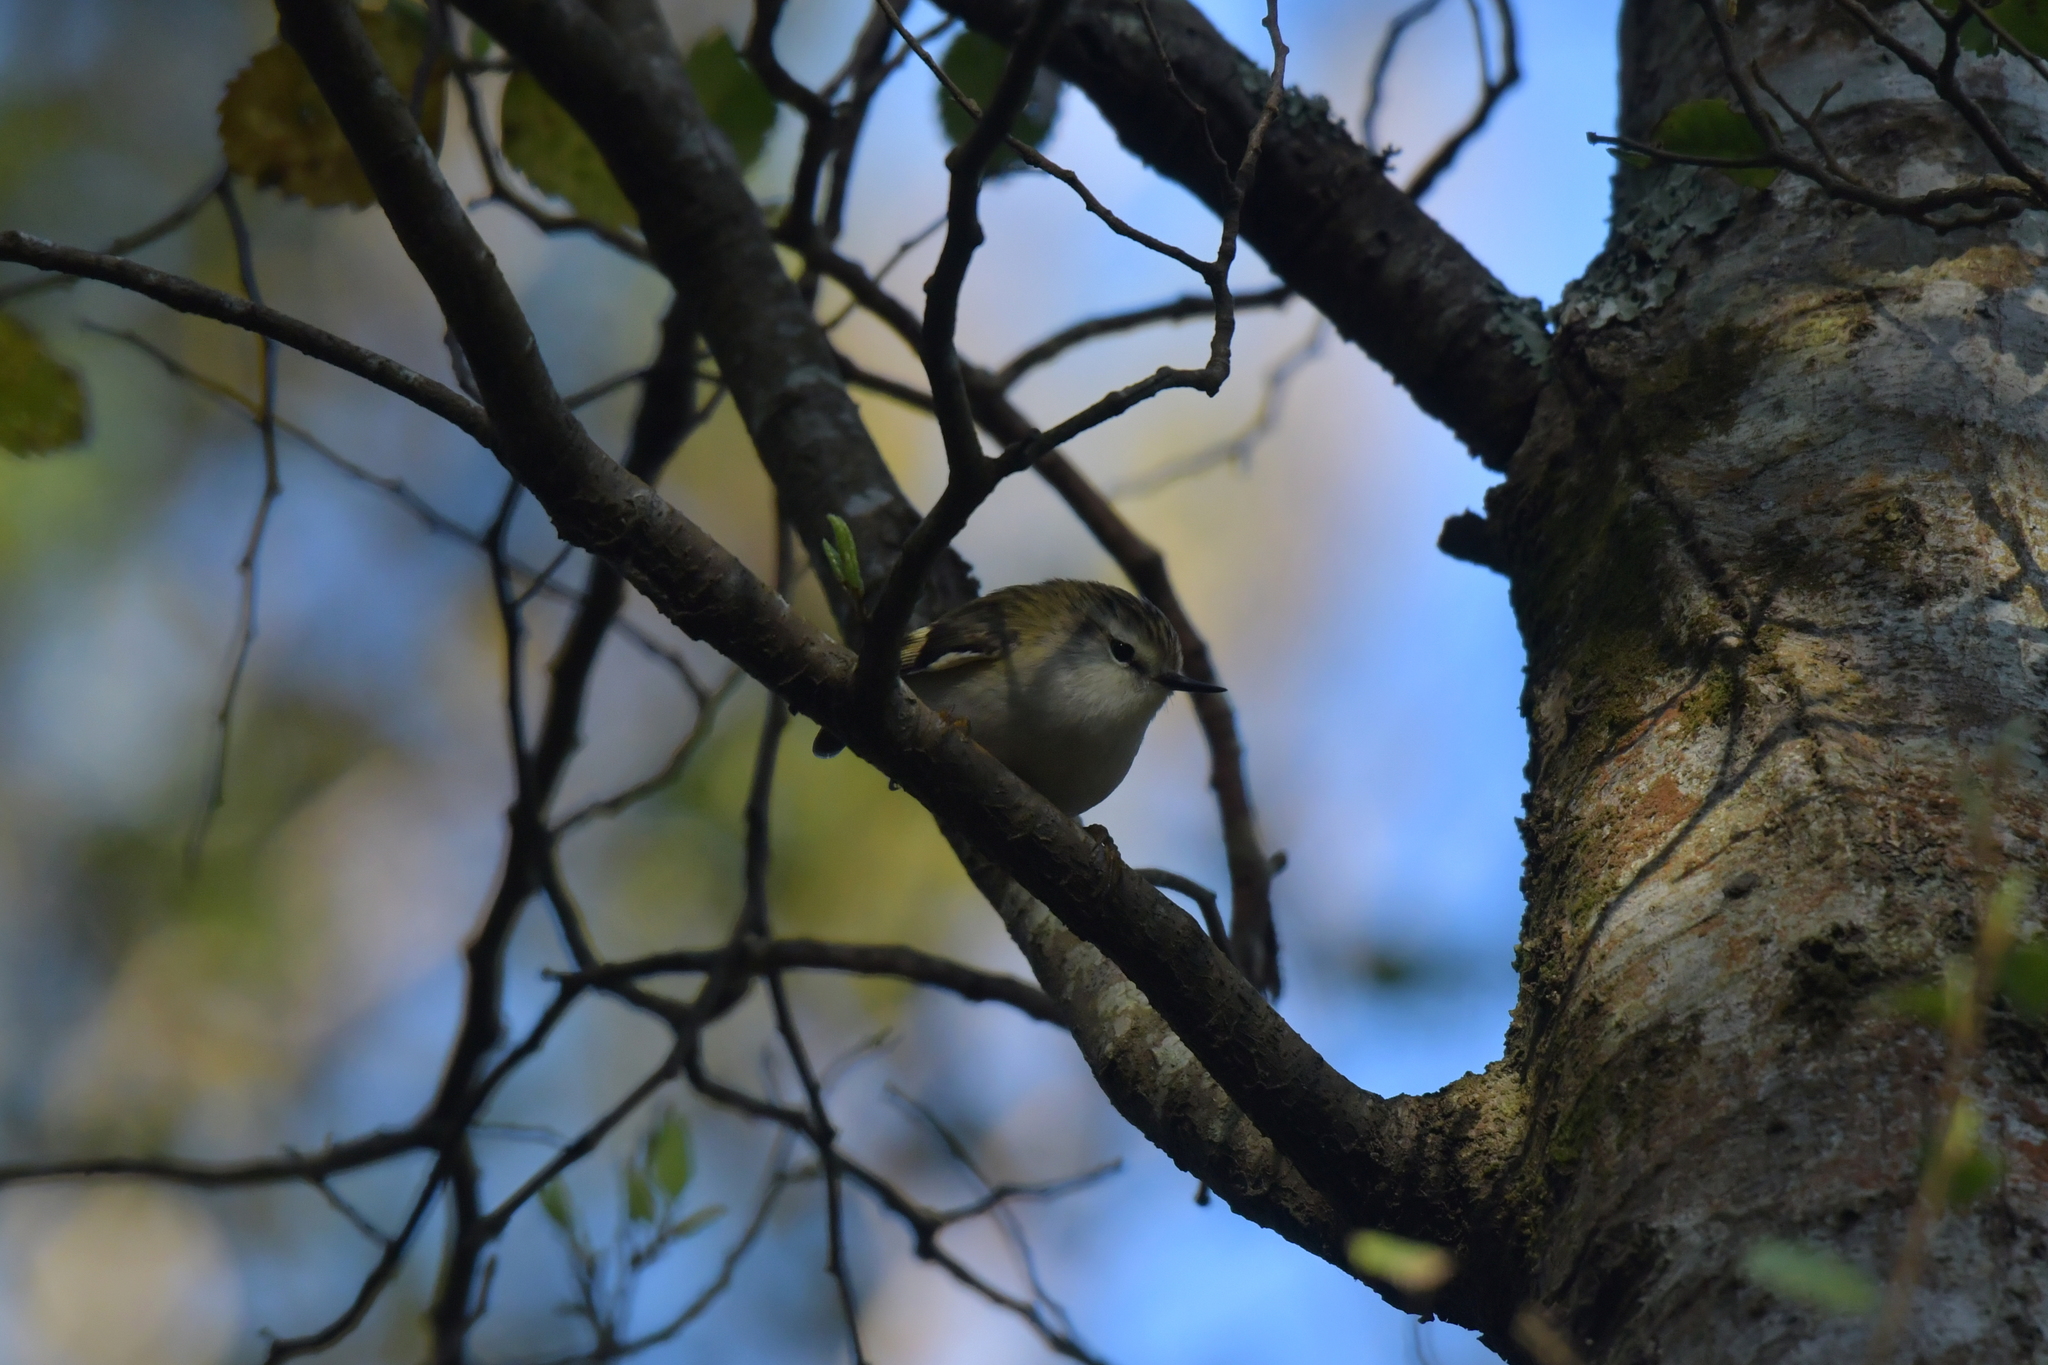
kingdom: Animalia
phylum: Chordata
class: Aves
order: Passeriformes
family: Acanthisittidae
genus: Acanthisitta
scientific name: Acanthisitta chloris
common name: Rifleman
